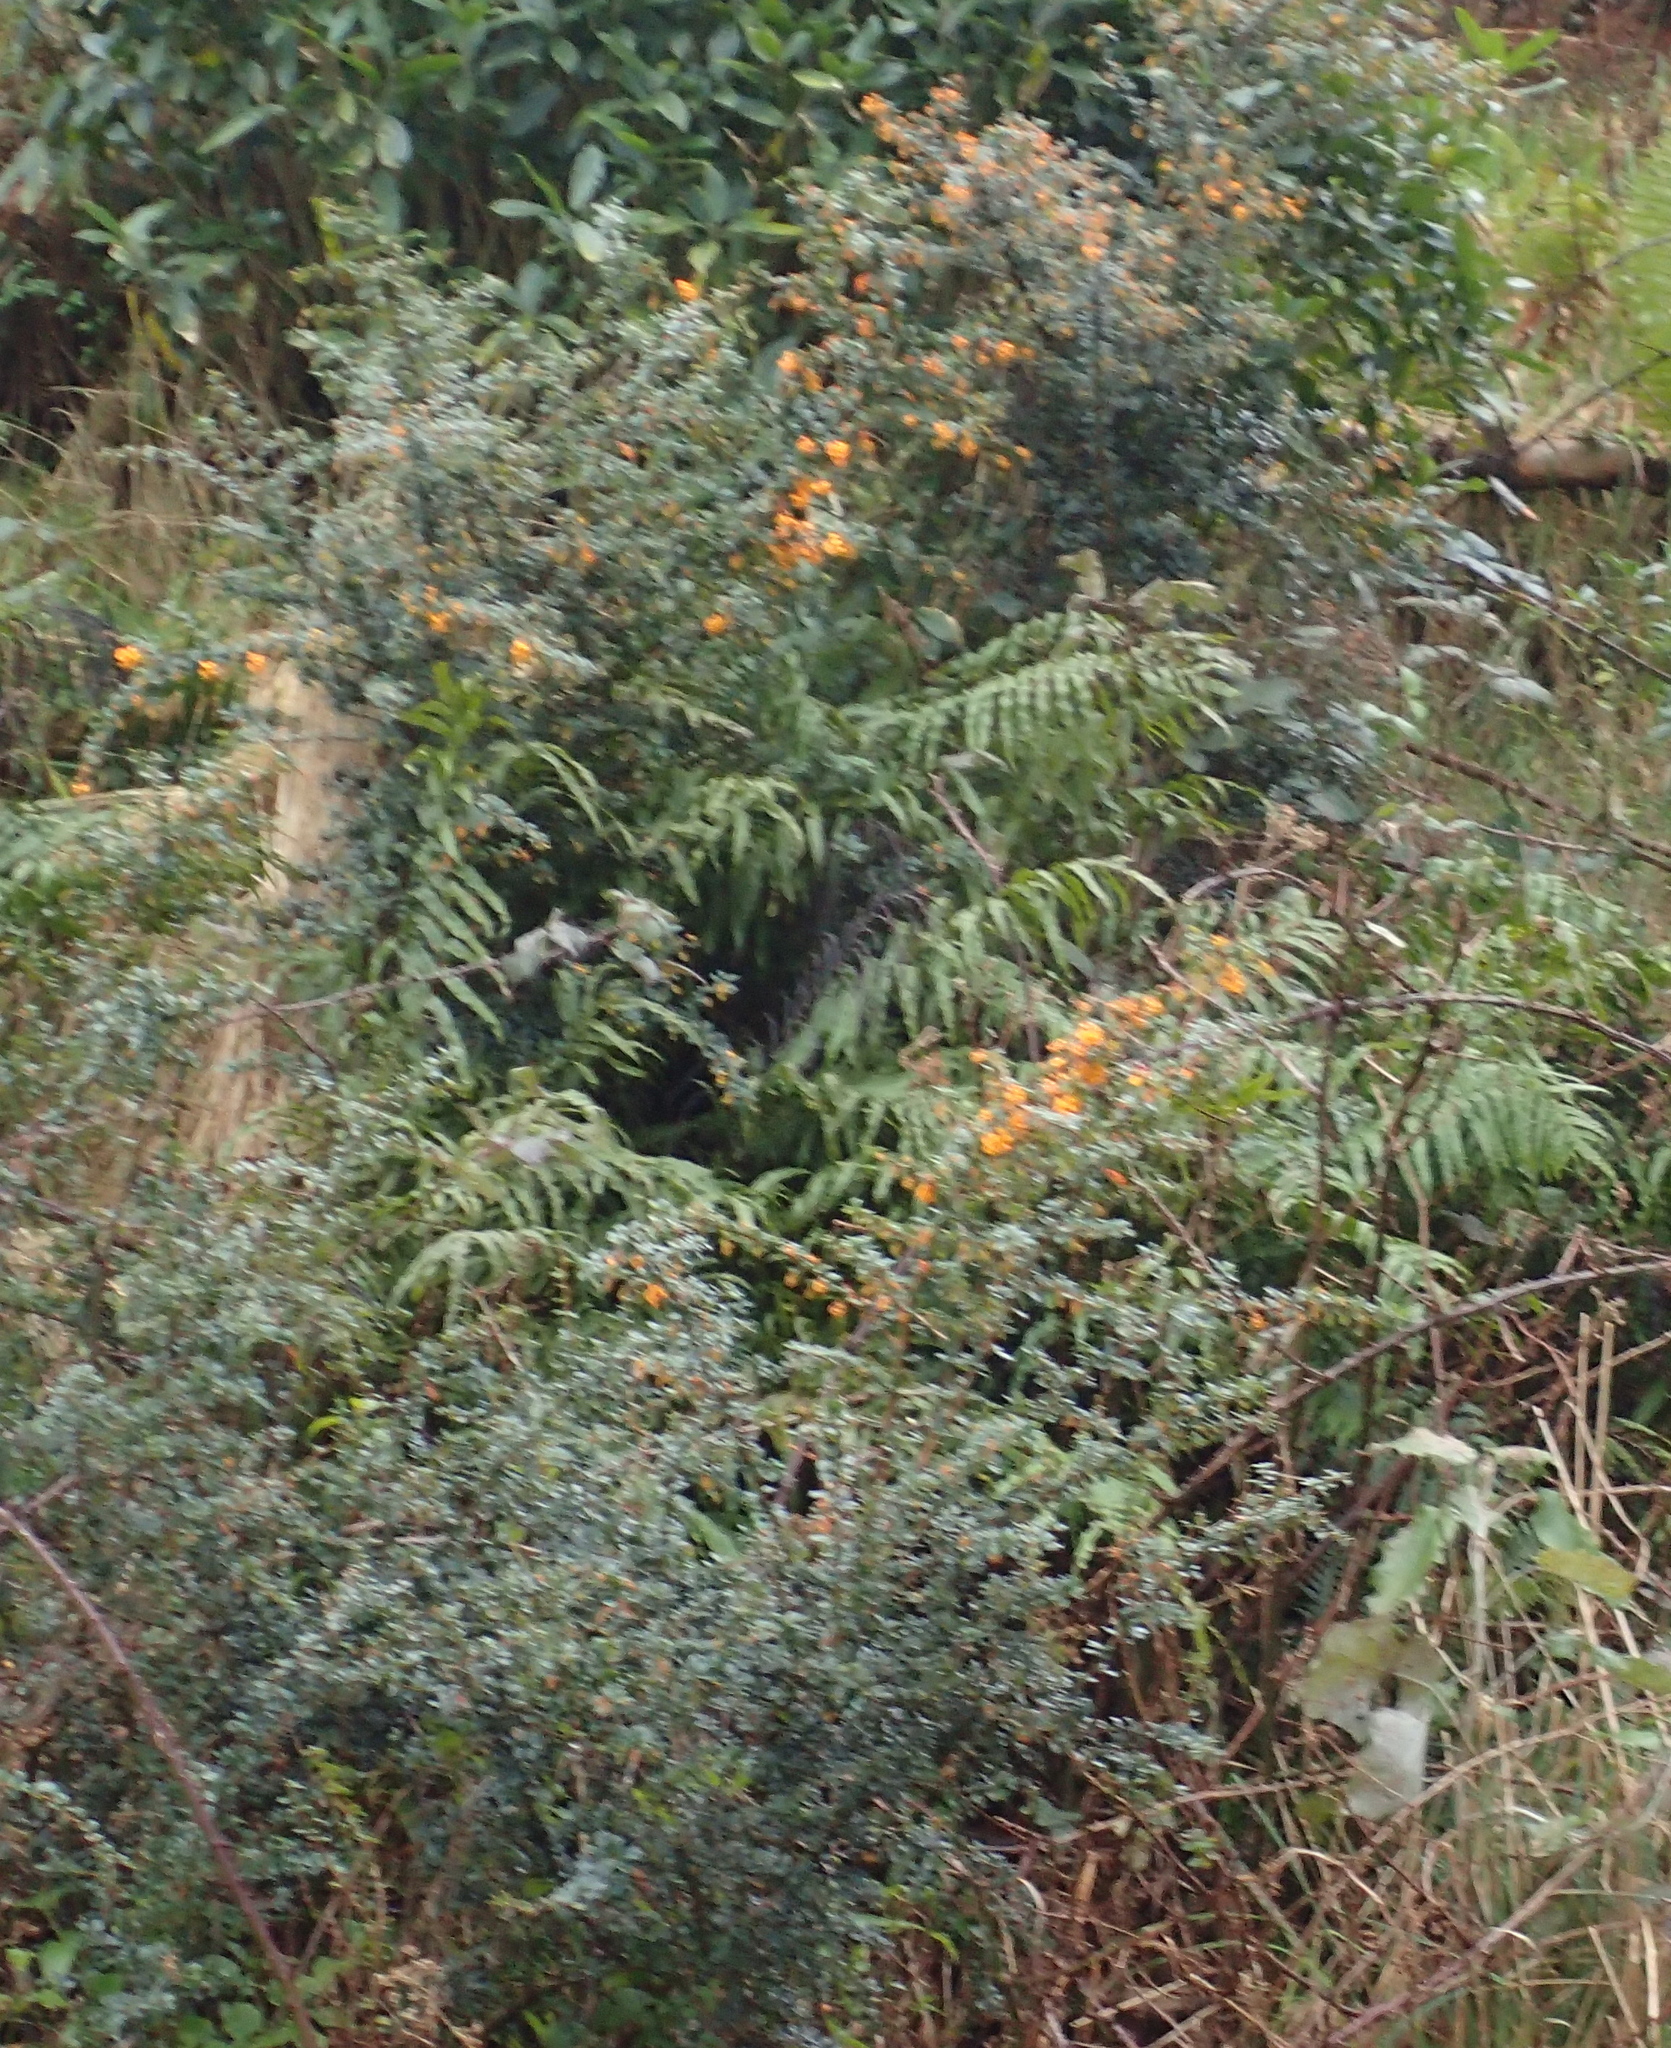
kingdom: Plantae
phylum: Tracheophyta
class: Magnoliopsida
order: Ranunculales
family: Berberidaceae
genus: Berberis
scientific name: Berberis darwinii
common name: Darwin's barberry
